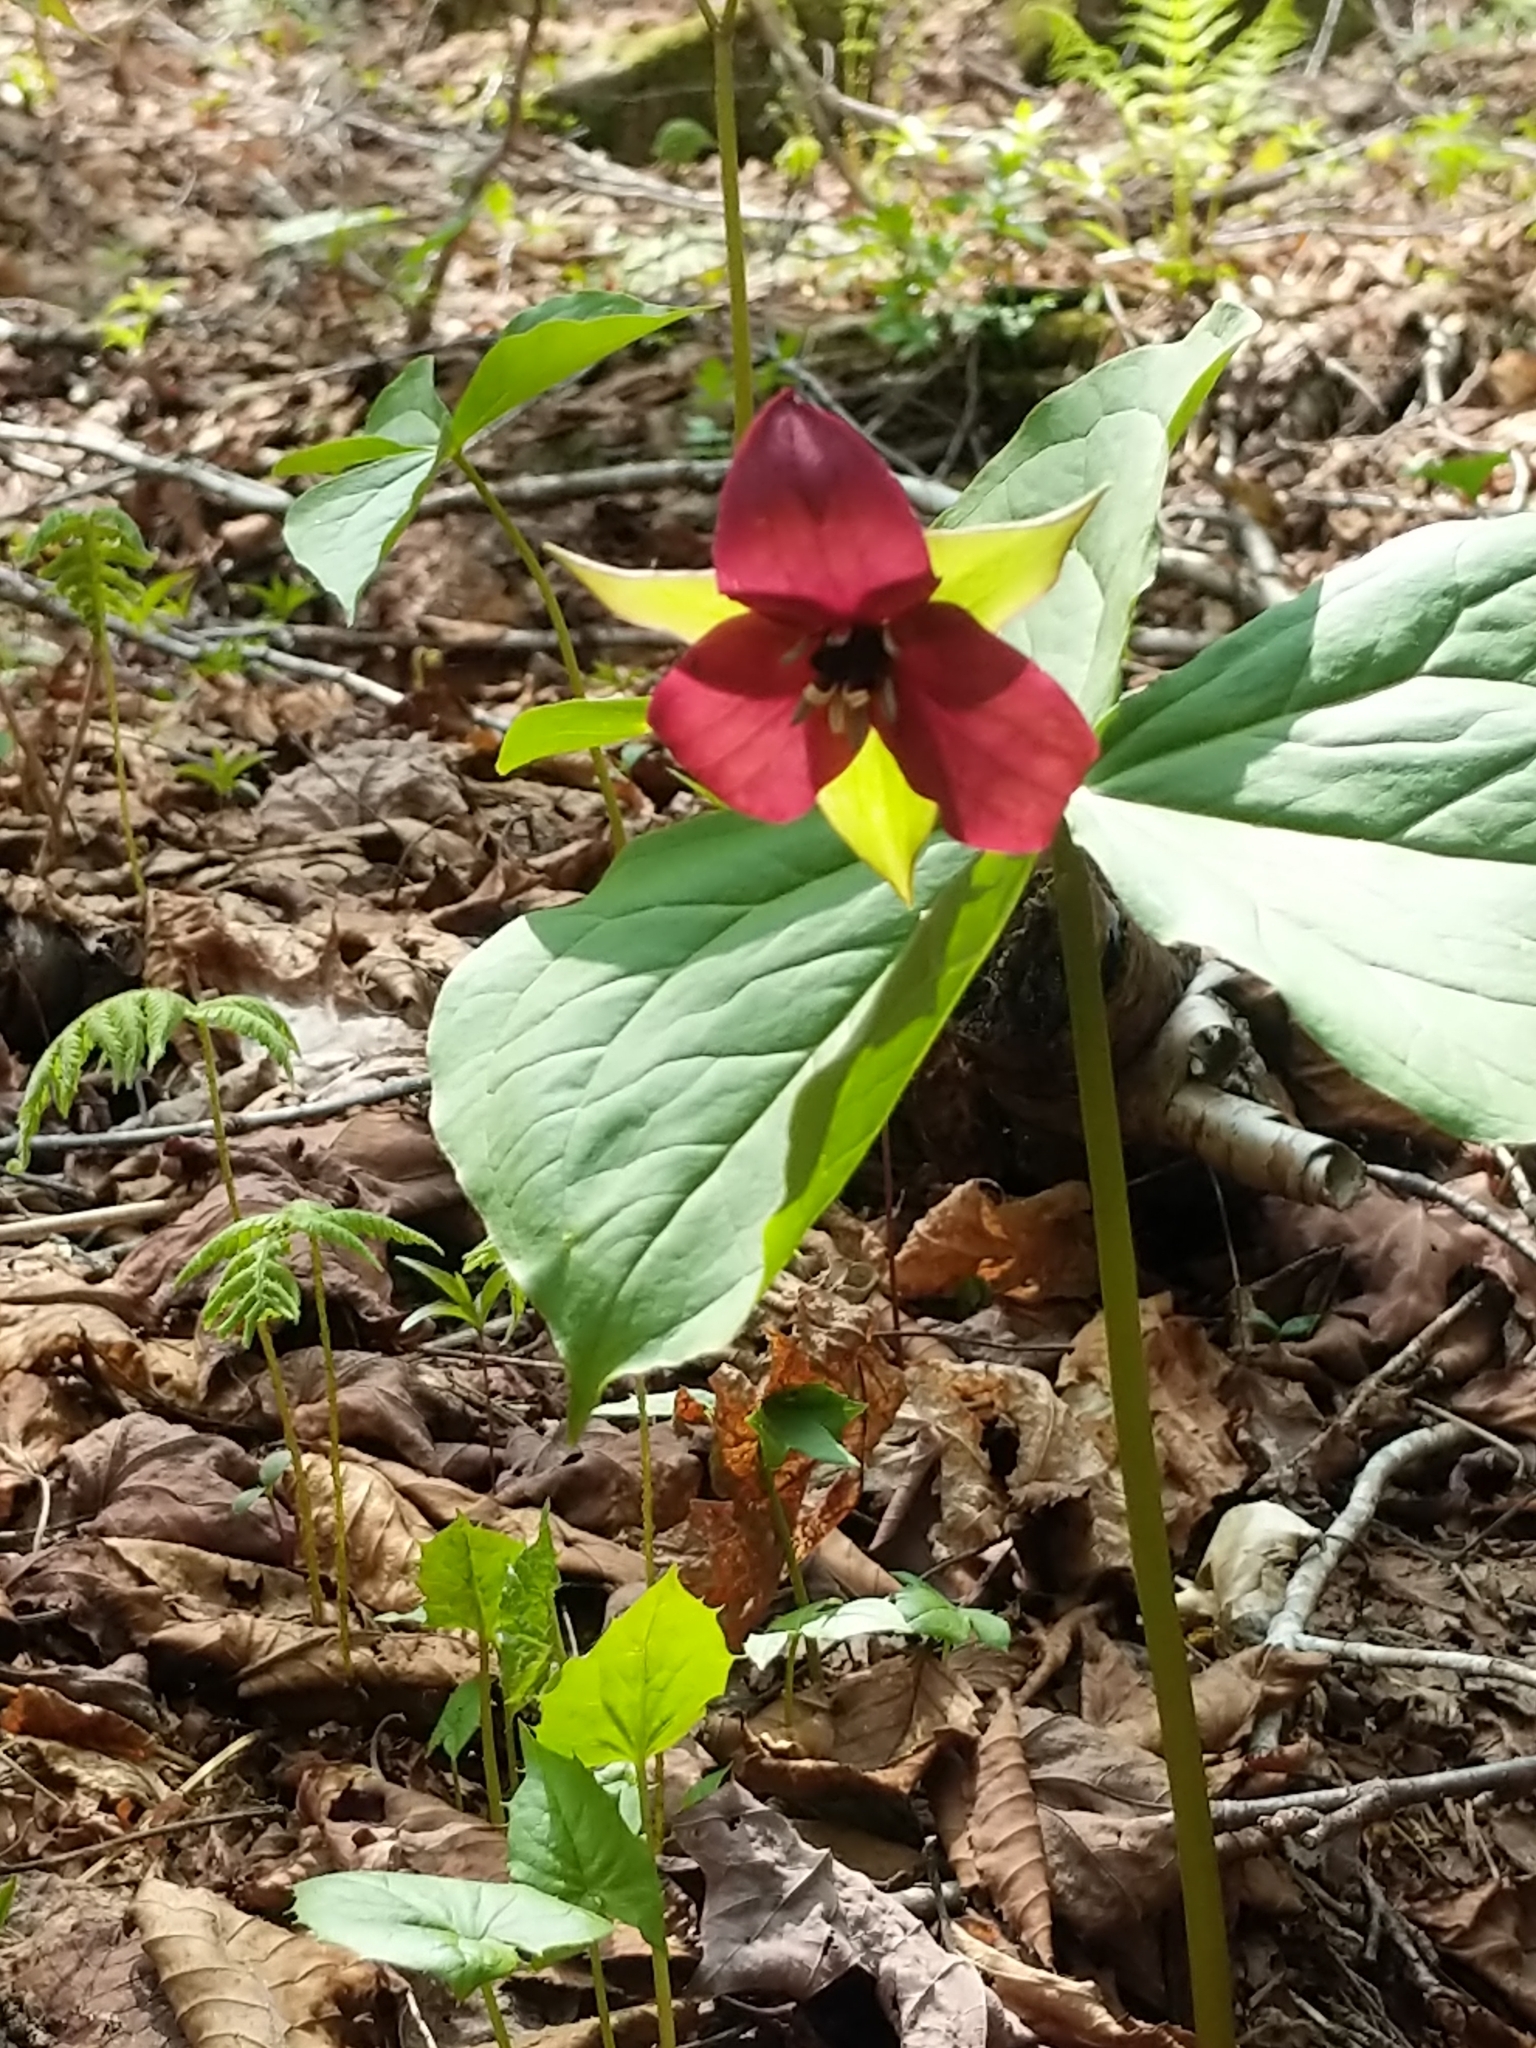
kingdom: Plantae
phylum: Tracheophyta
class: Liliopsida
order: Liliales
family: Melanthiaceae
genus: Trillium
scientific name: Trillium erectum
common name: Purple trillium
